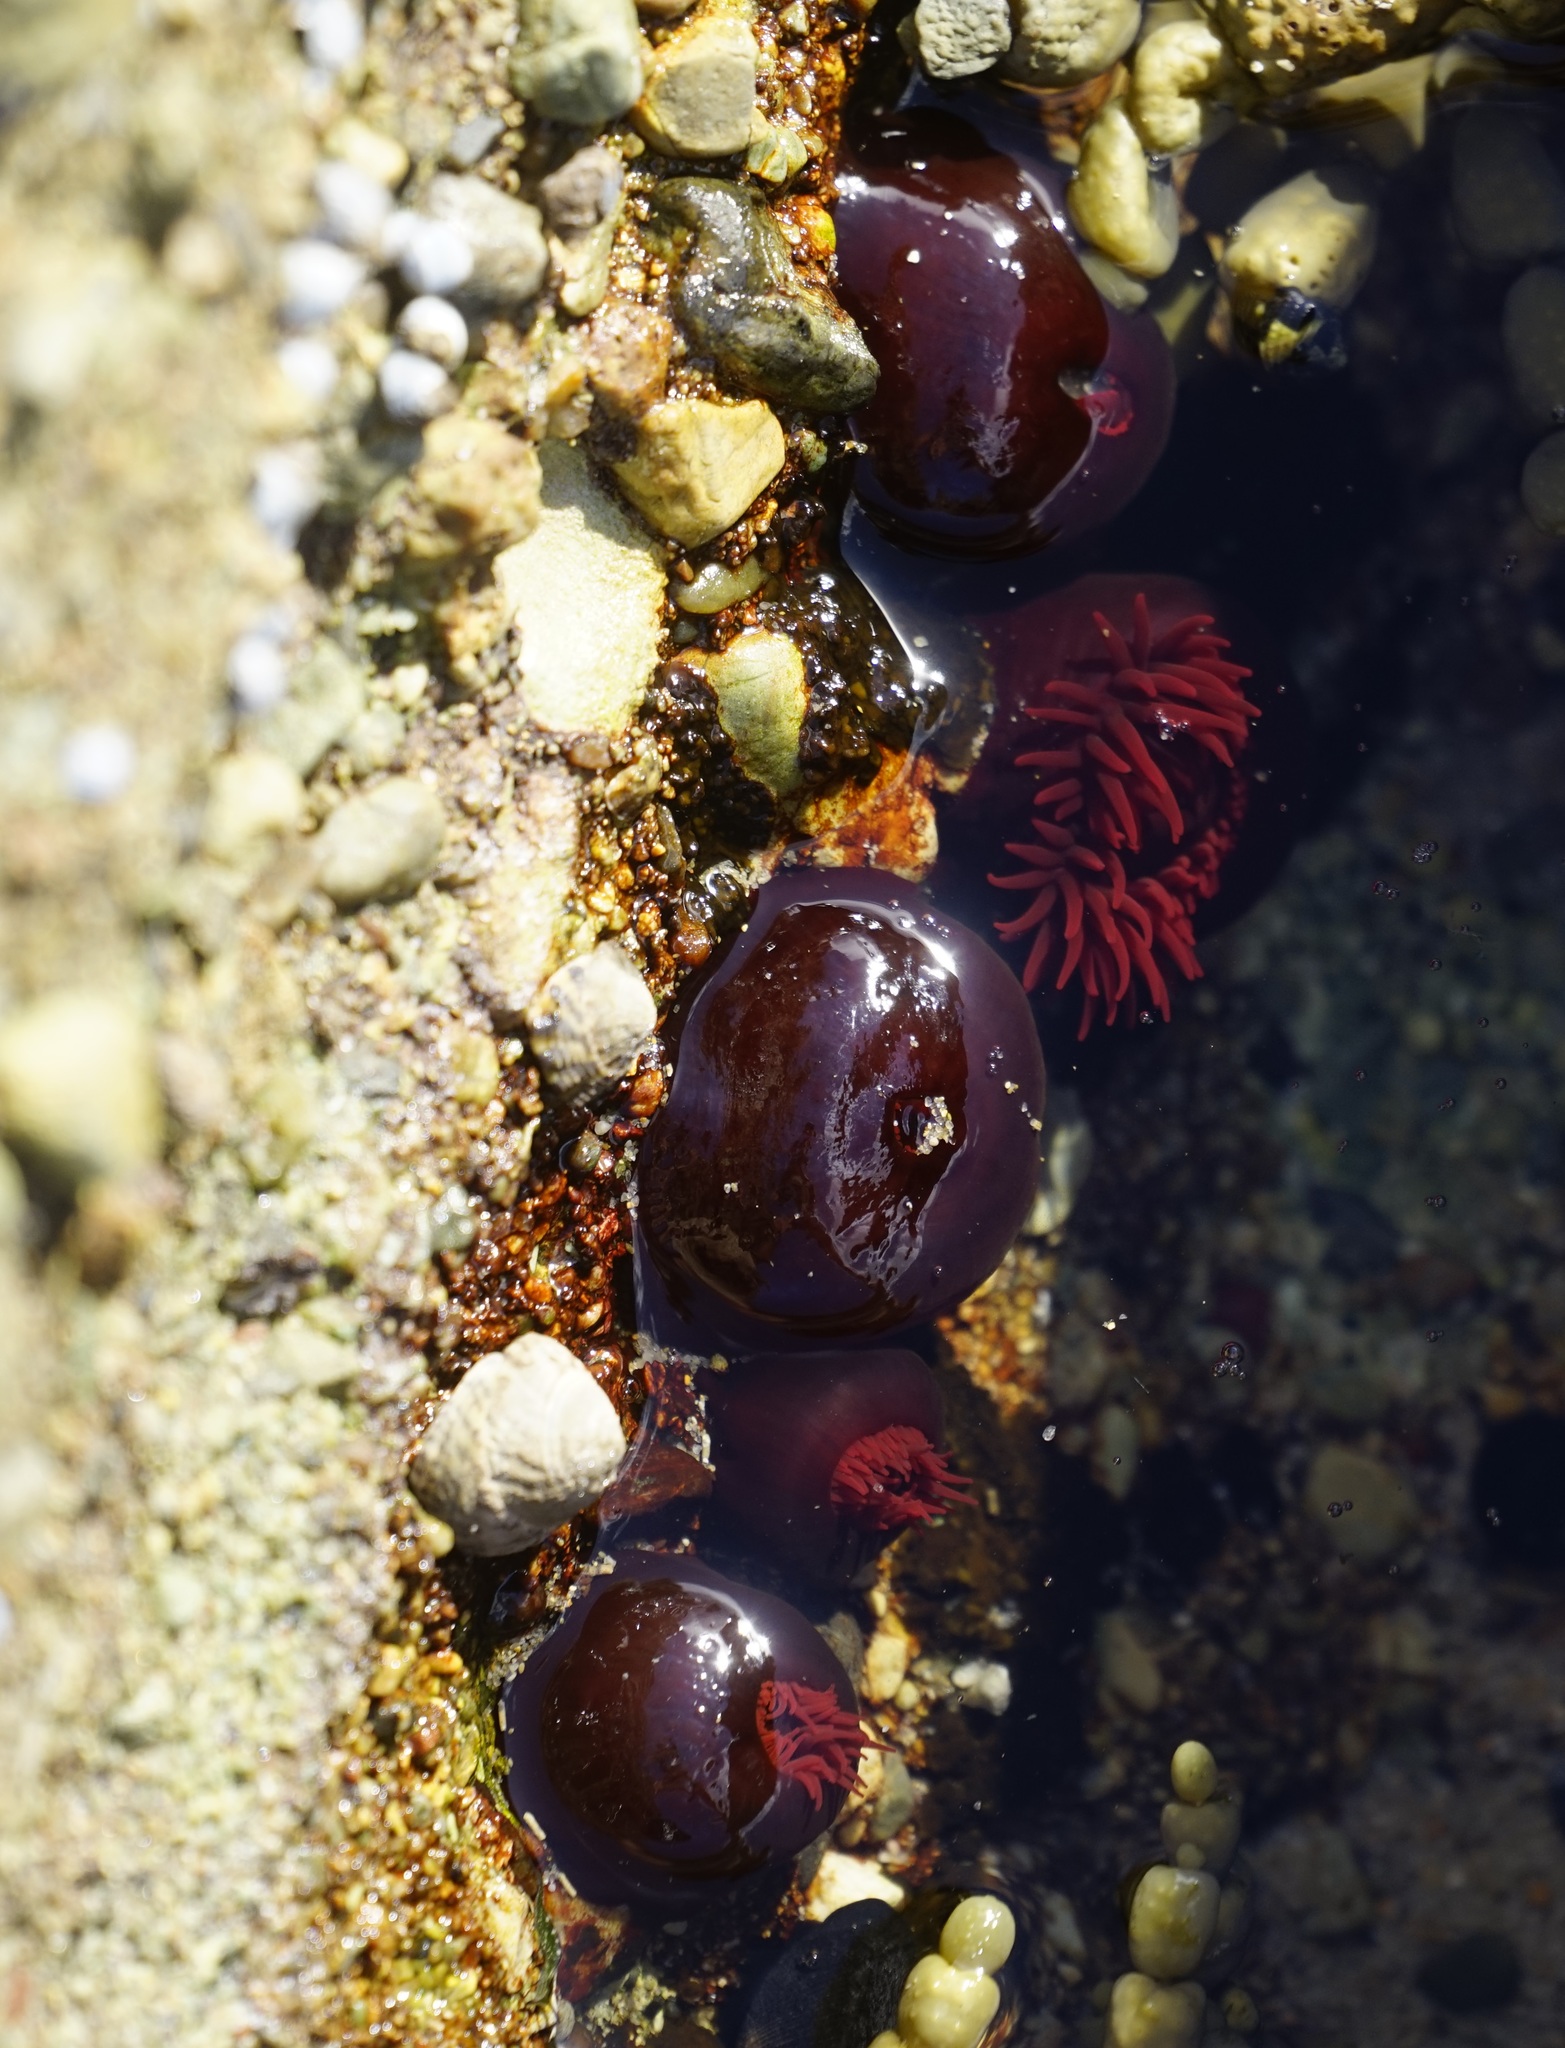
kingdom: Animalia
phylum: Cnidaria
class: Anthozoa
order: Actiniaria
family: Actiniidae
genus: Actinia
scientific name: Actinia tenebrosa
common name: Waratah anemone
